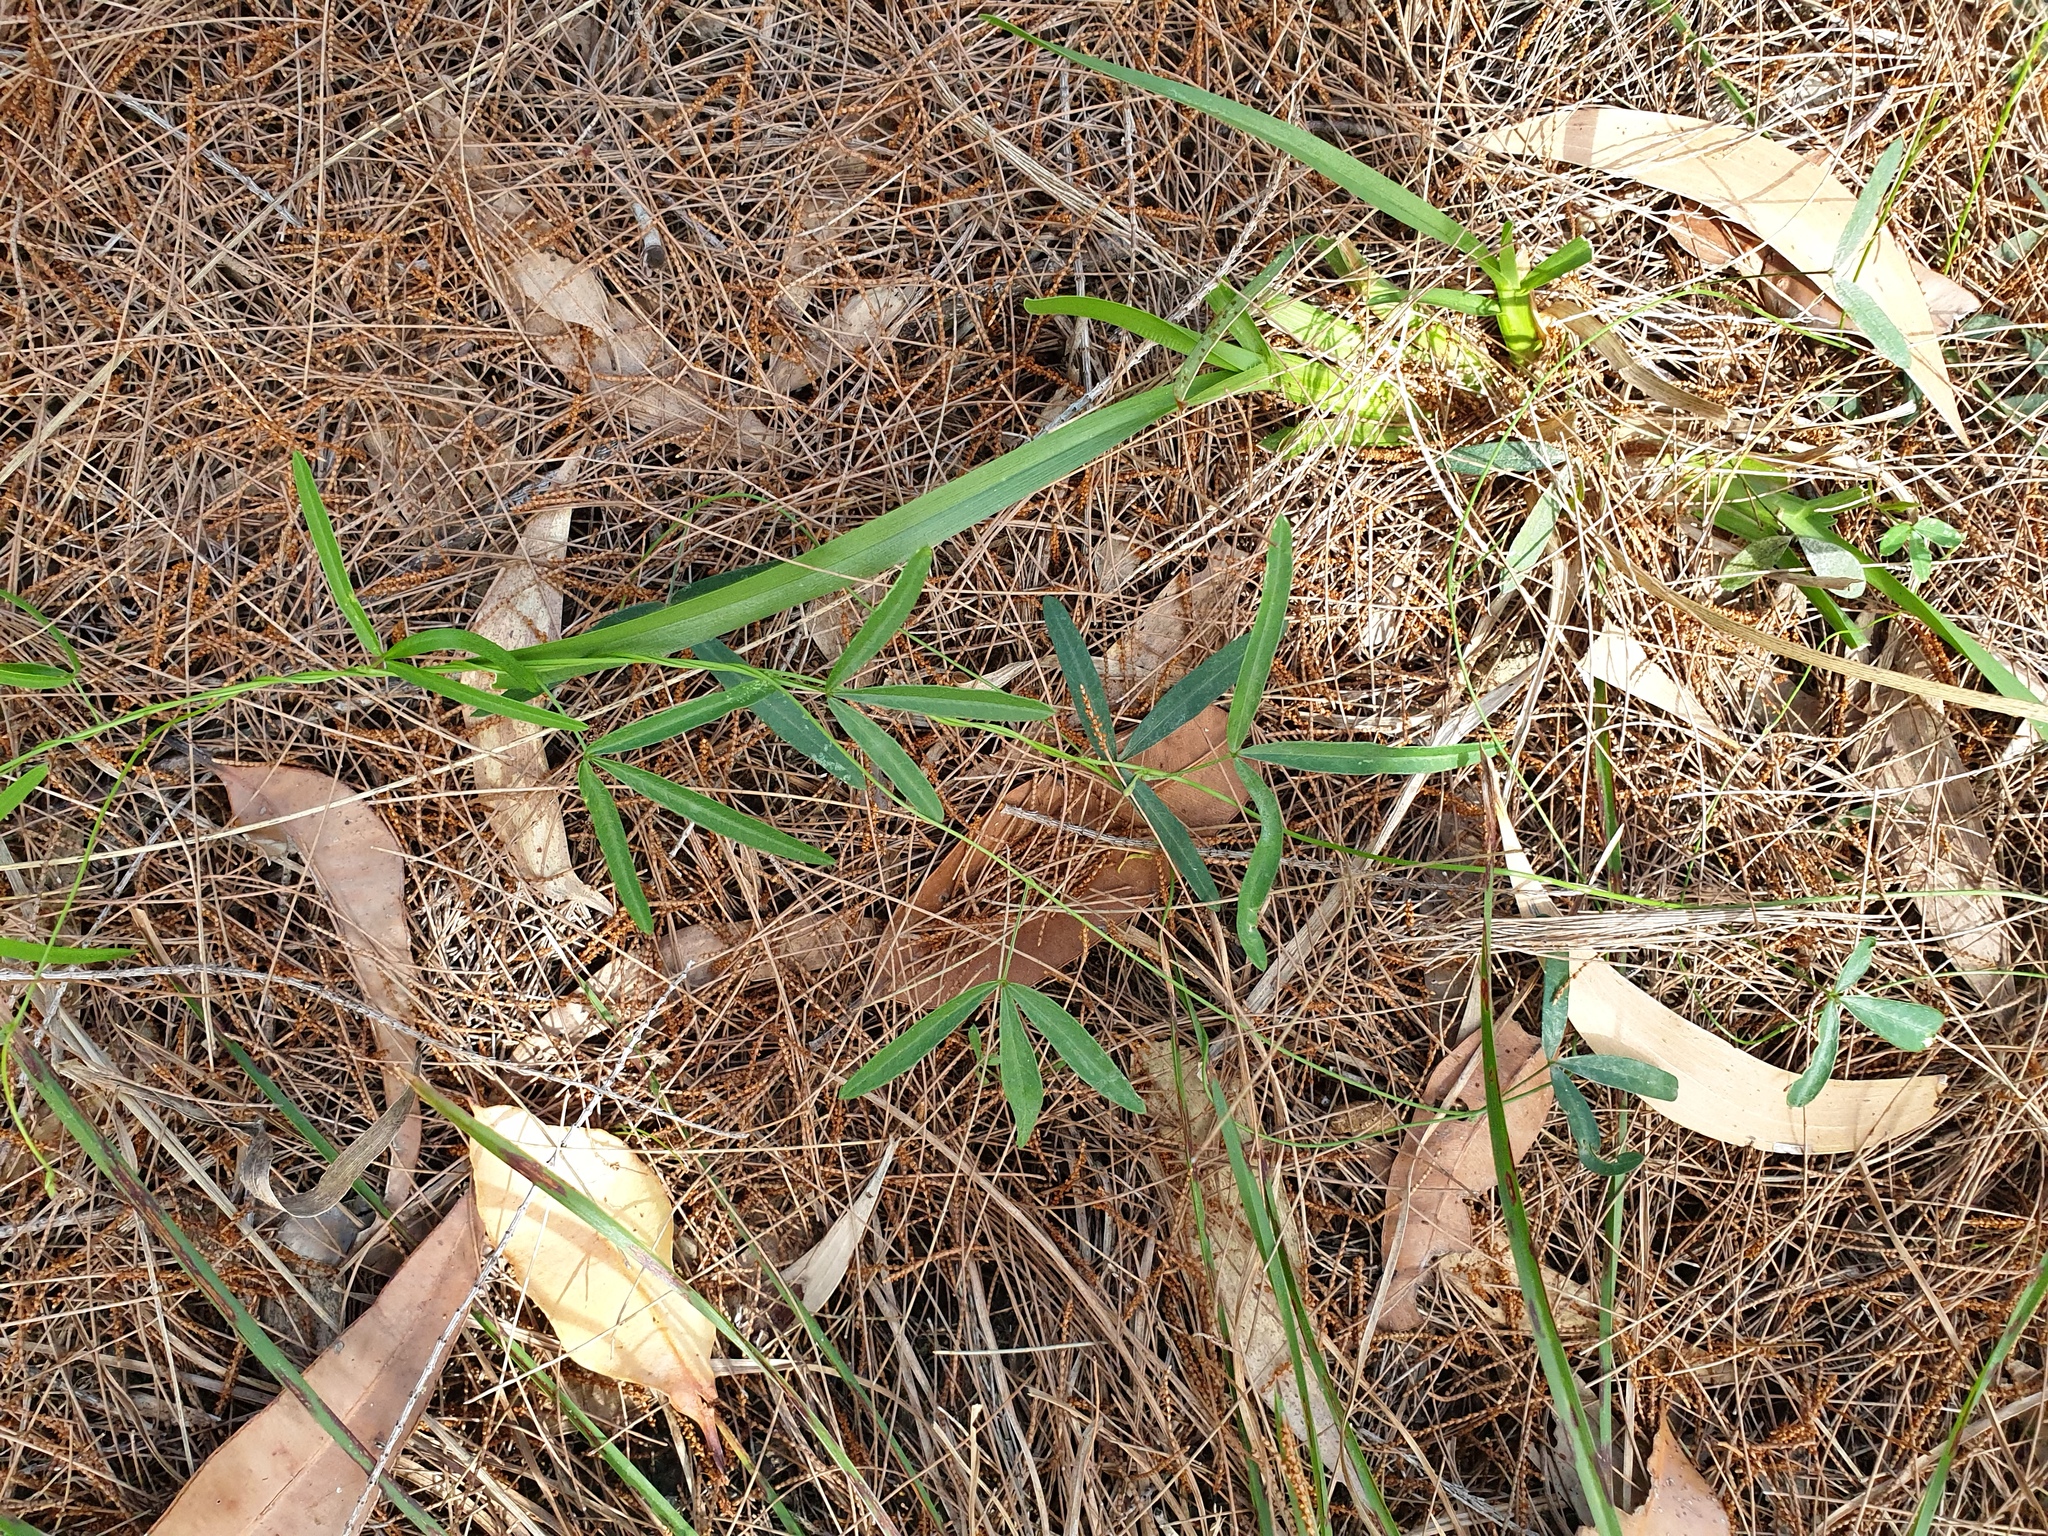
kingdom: Plantae
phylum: Tracheophyta
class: Magnoliopsida
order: Fabales
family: Fabaceae
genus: Glycine
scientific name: Glycine clandestina
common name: Twining glycine
